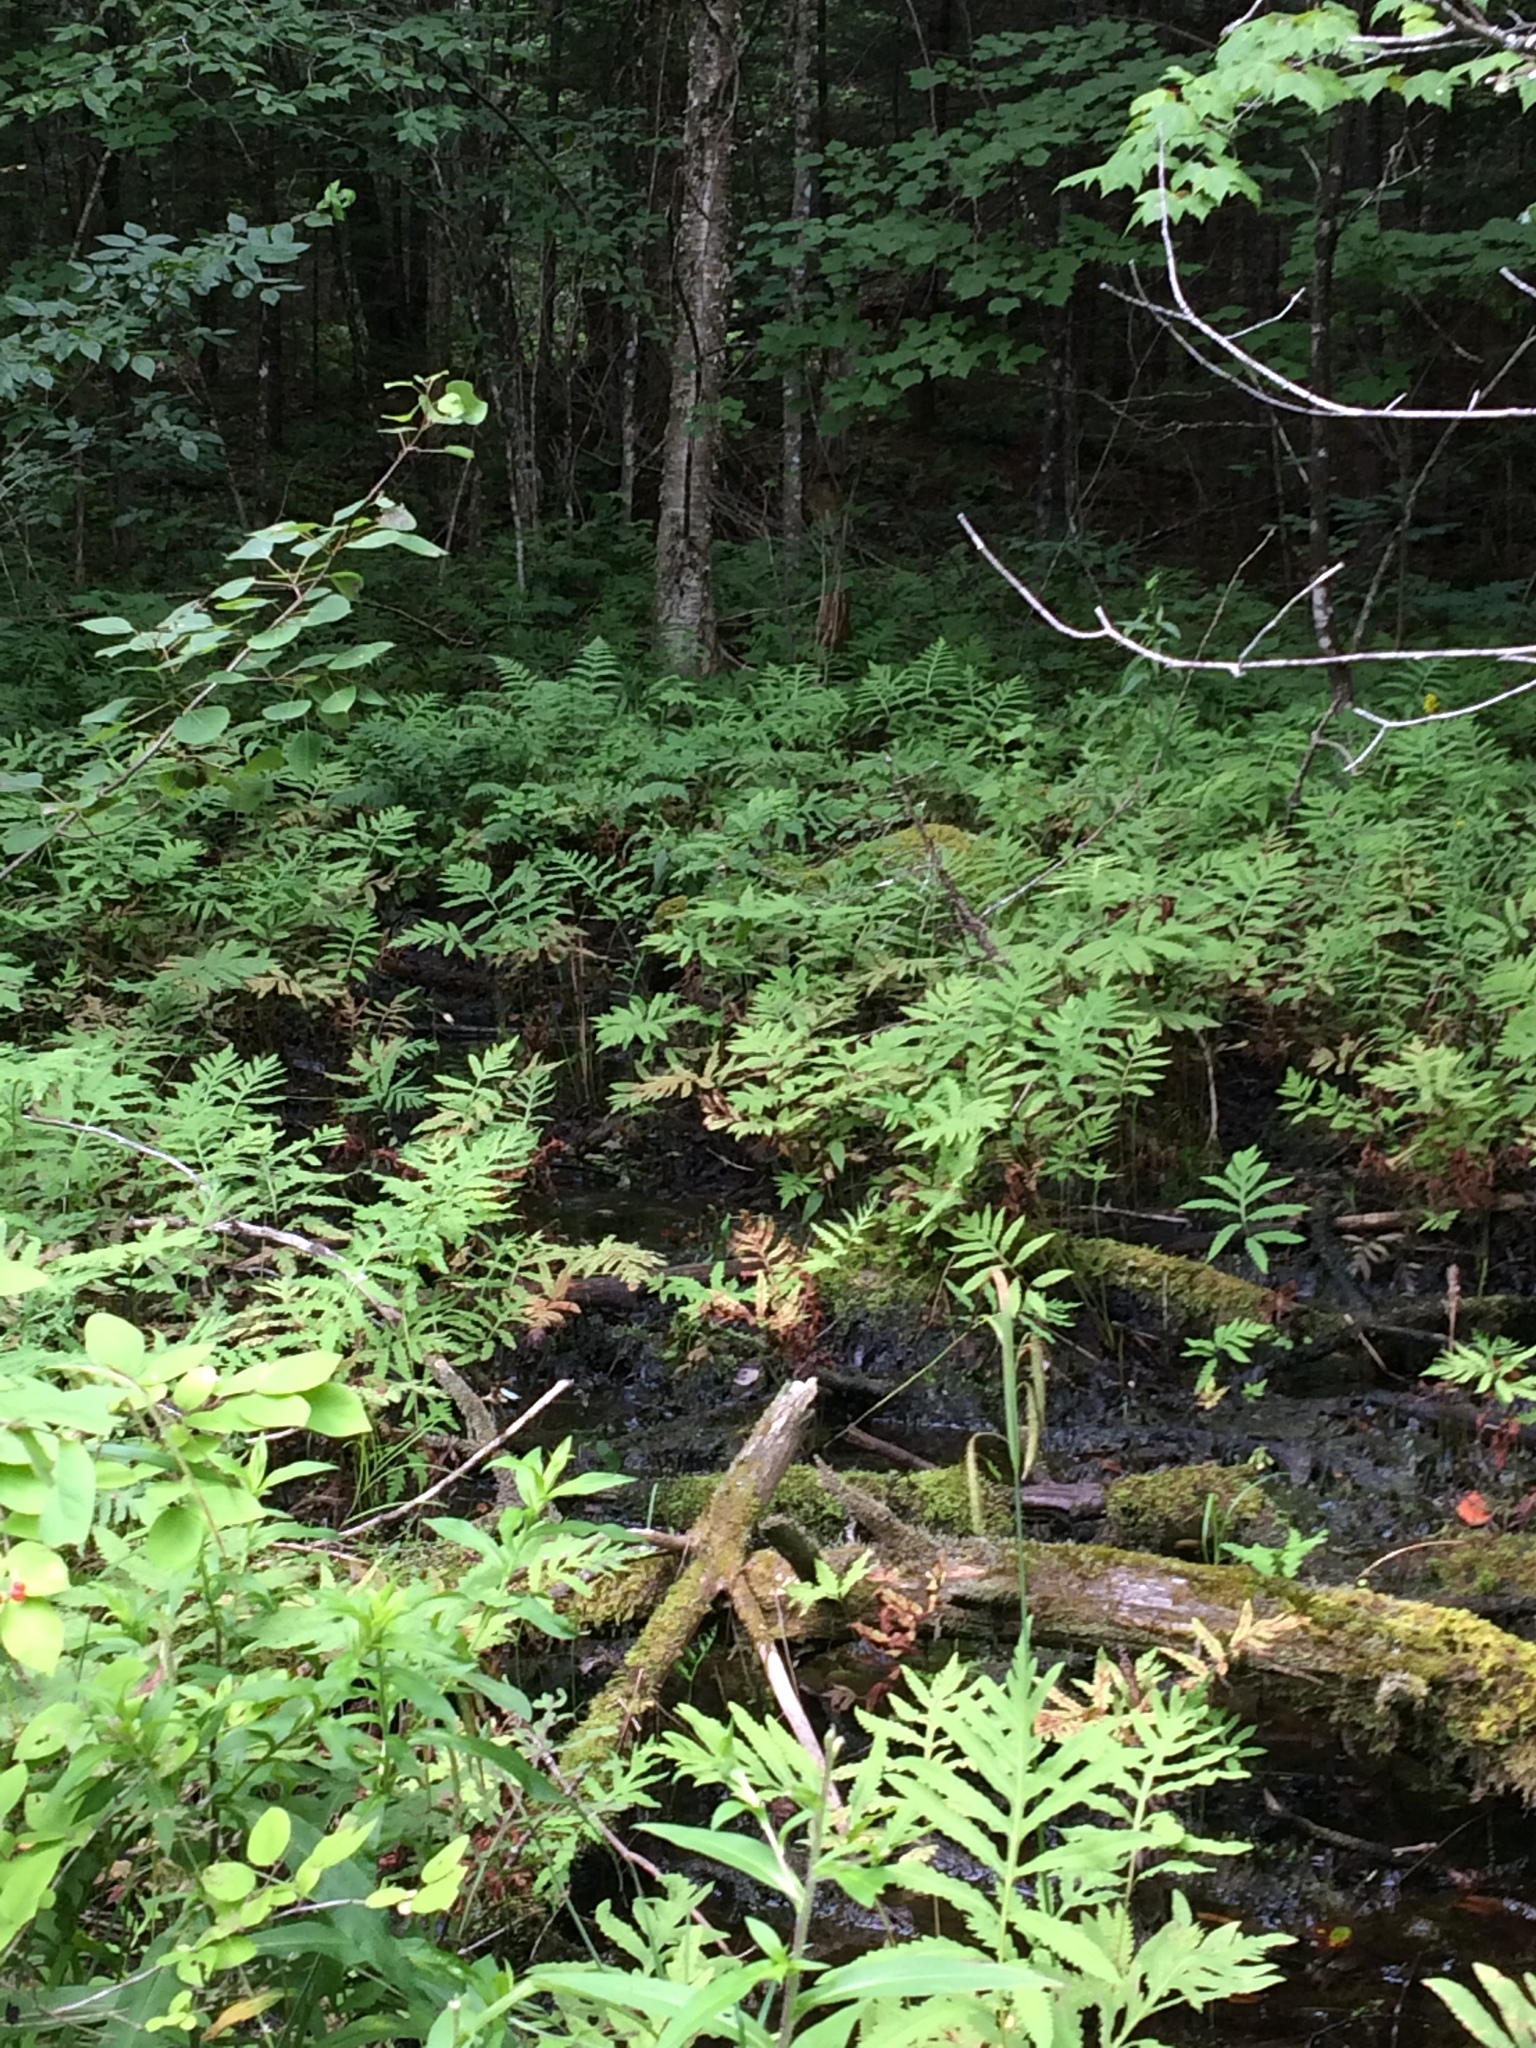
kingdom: Plantae
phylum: Tracheophyta
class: Polypodiopsida
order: Polypodiales
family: Onocleaceae
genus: Onoclea
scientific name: Onoclea sensibilis
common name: Sensitive fern
